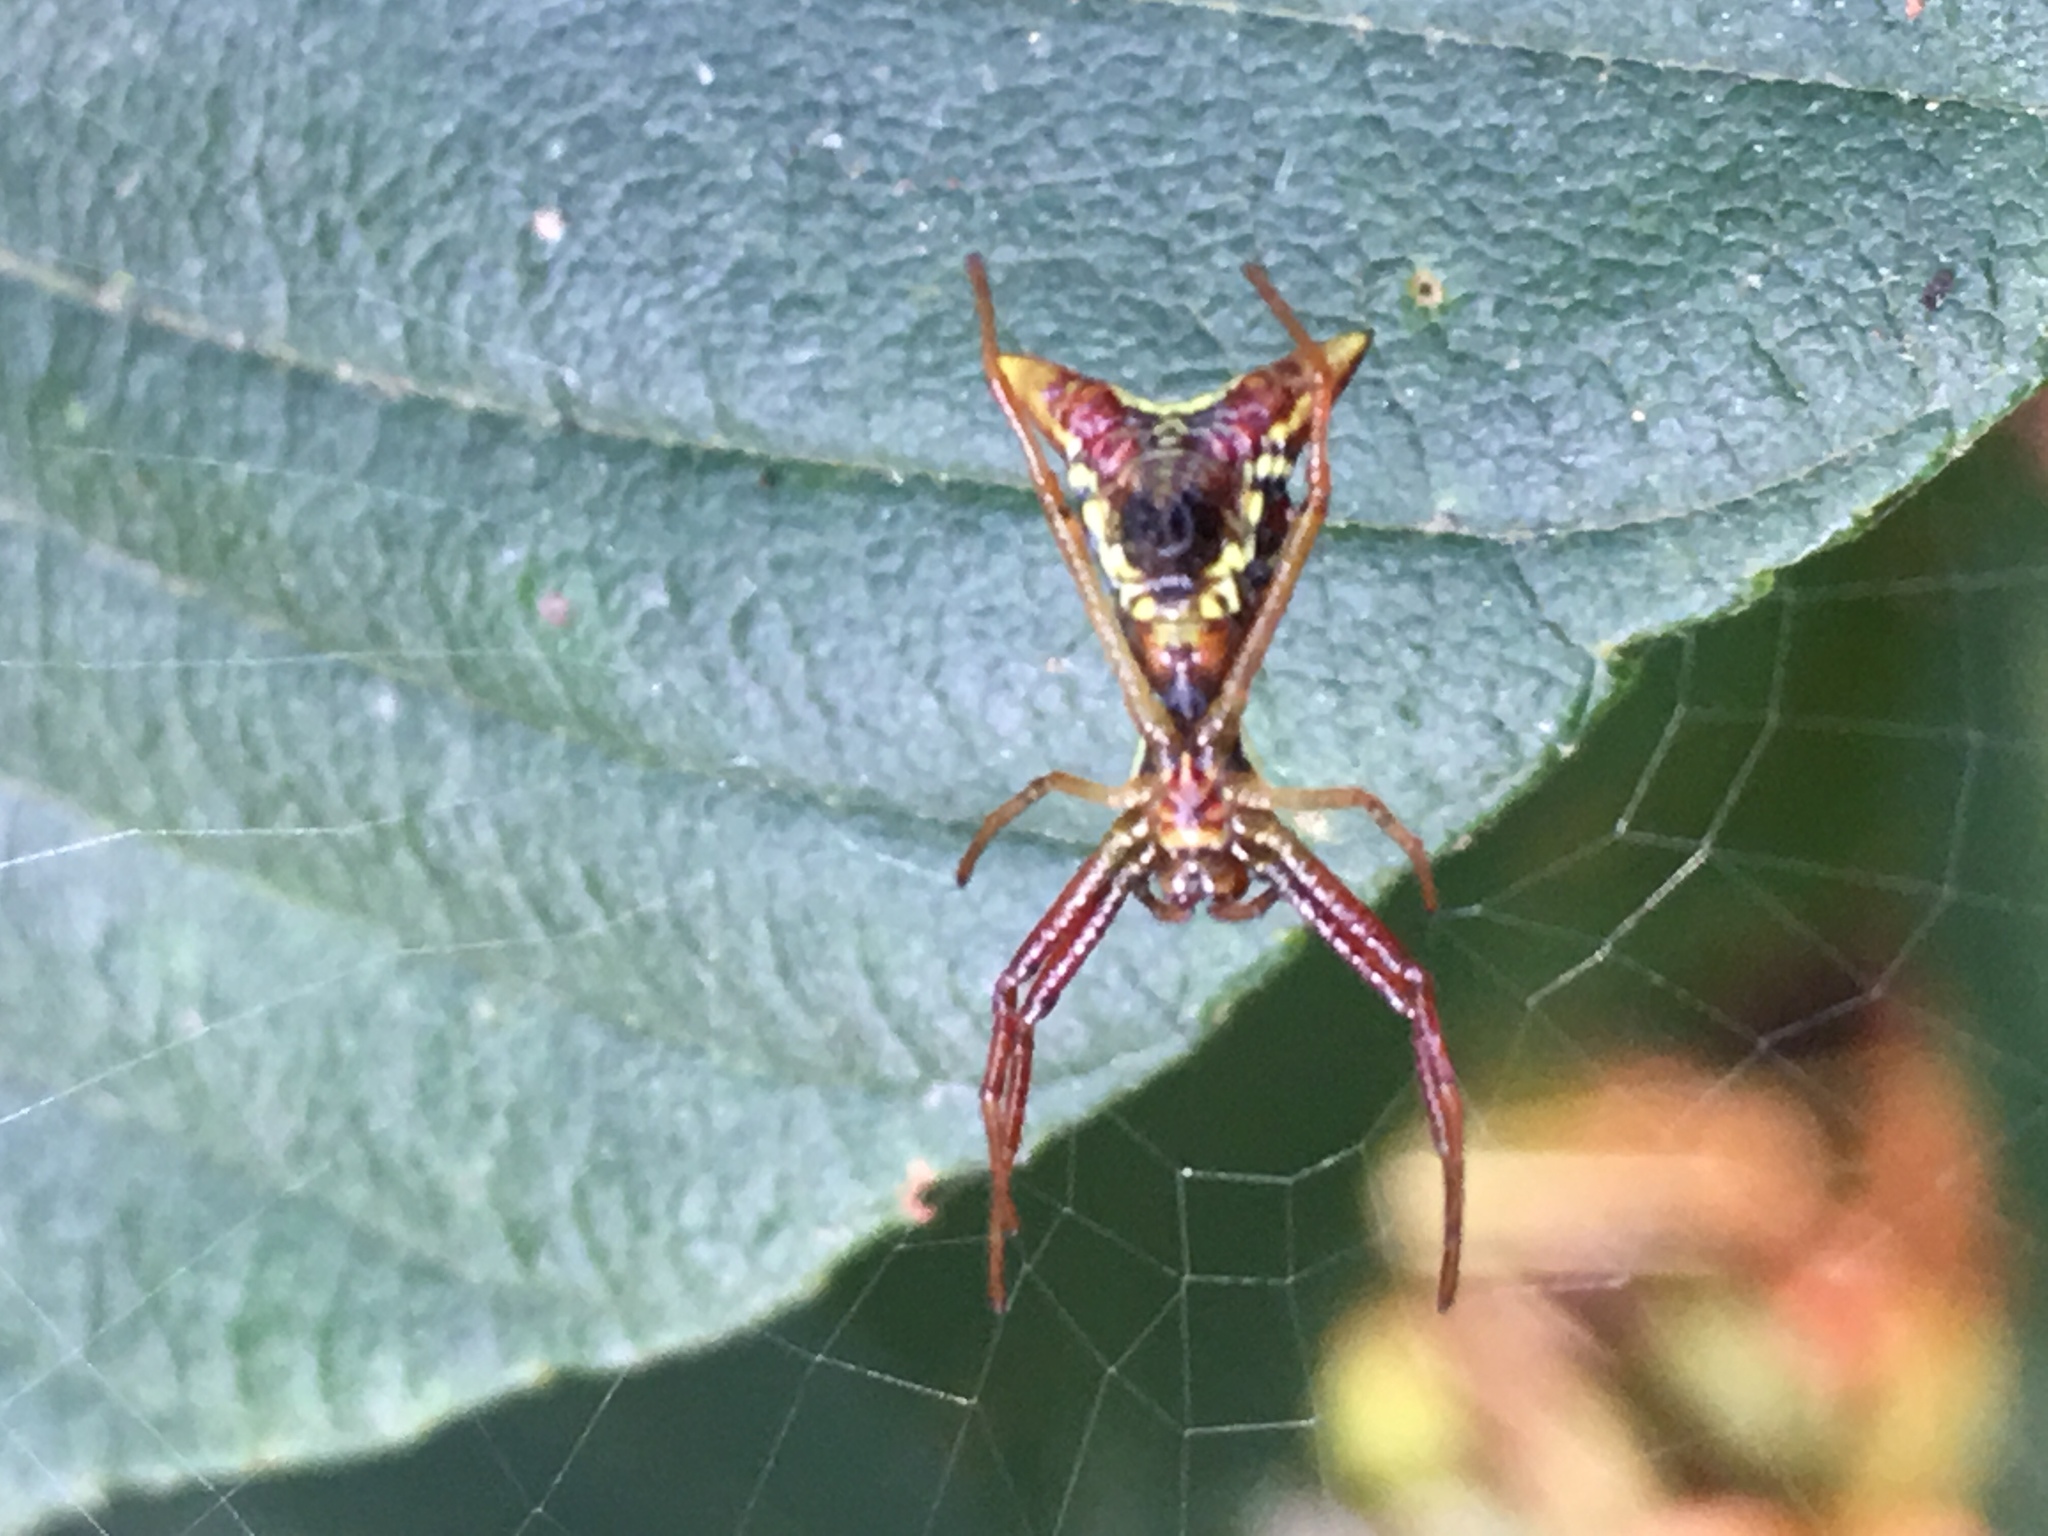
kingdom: Animalia
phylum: Arthropoda
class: Arachnida
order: Araneae
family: Araneidae
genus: Micrathena
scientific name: Micrathena sagittata
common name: Orb weavers
